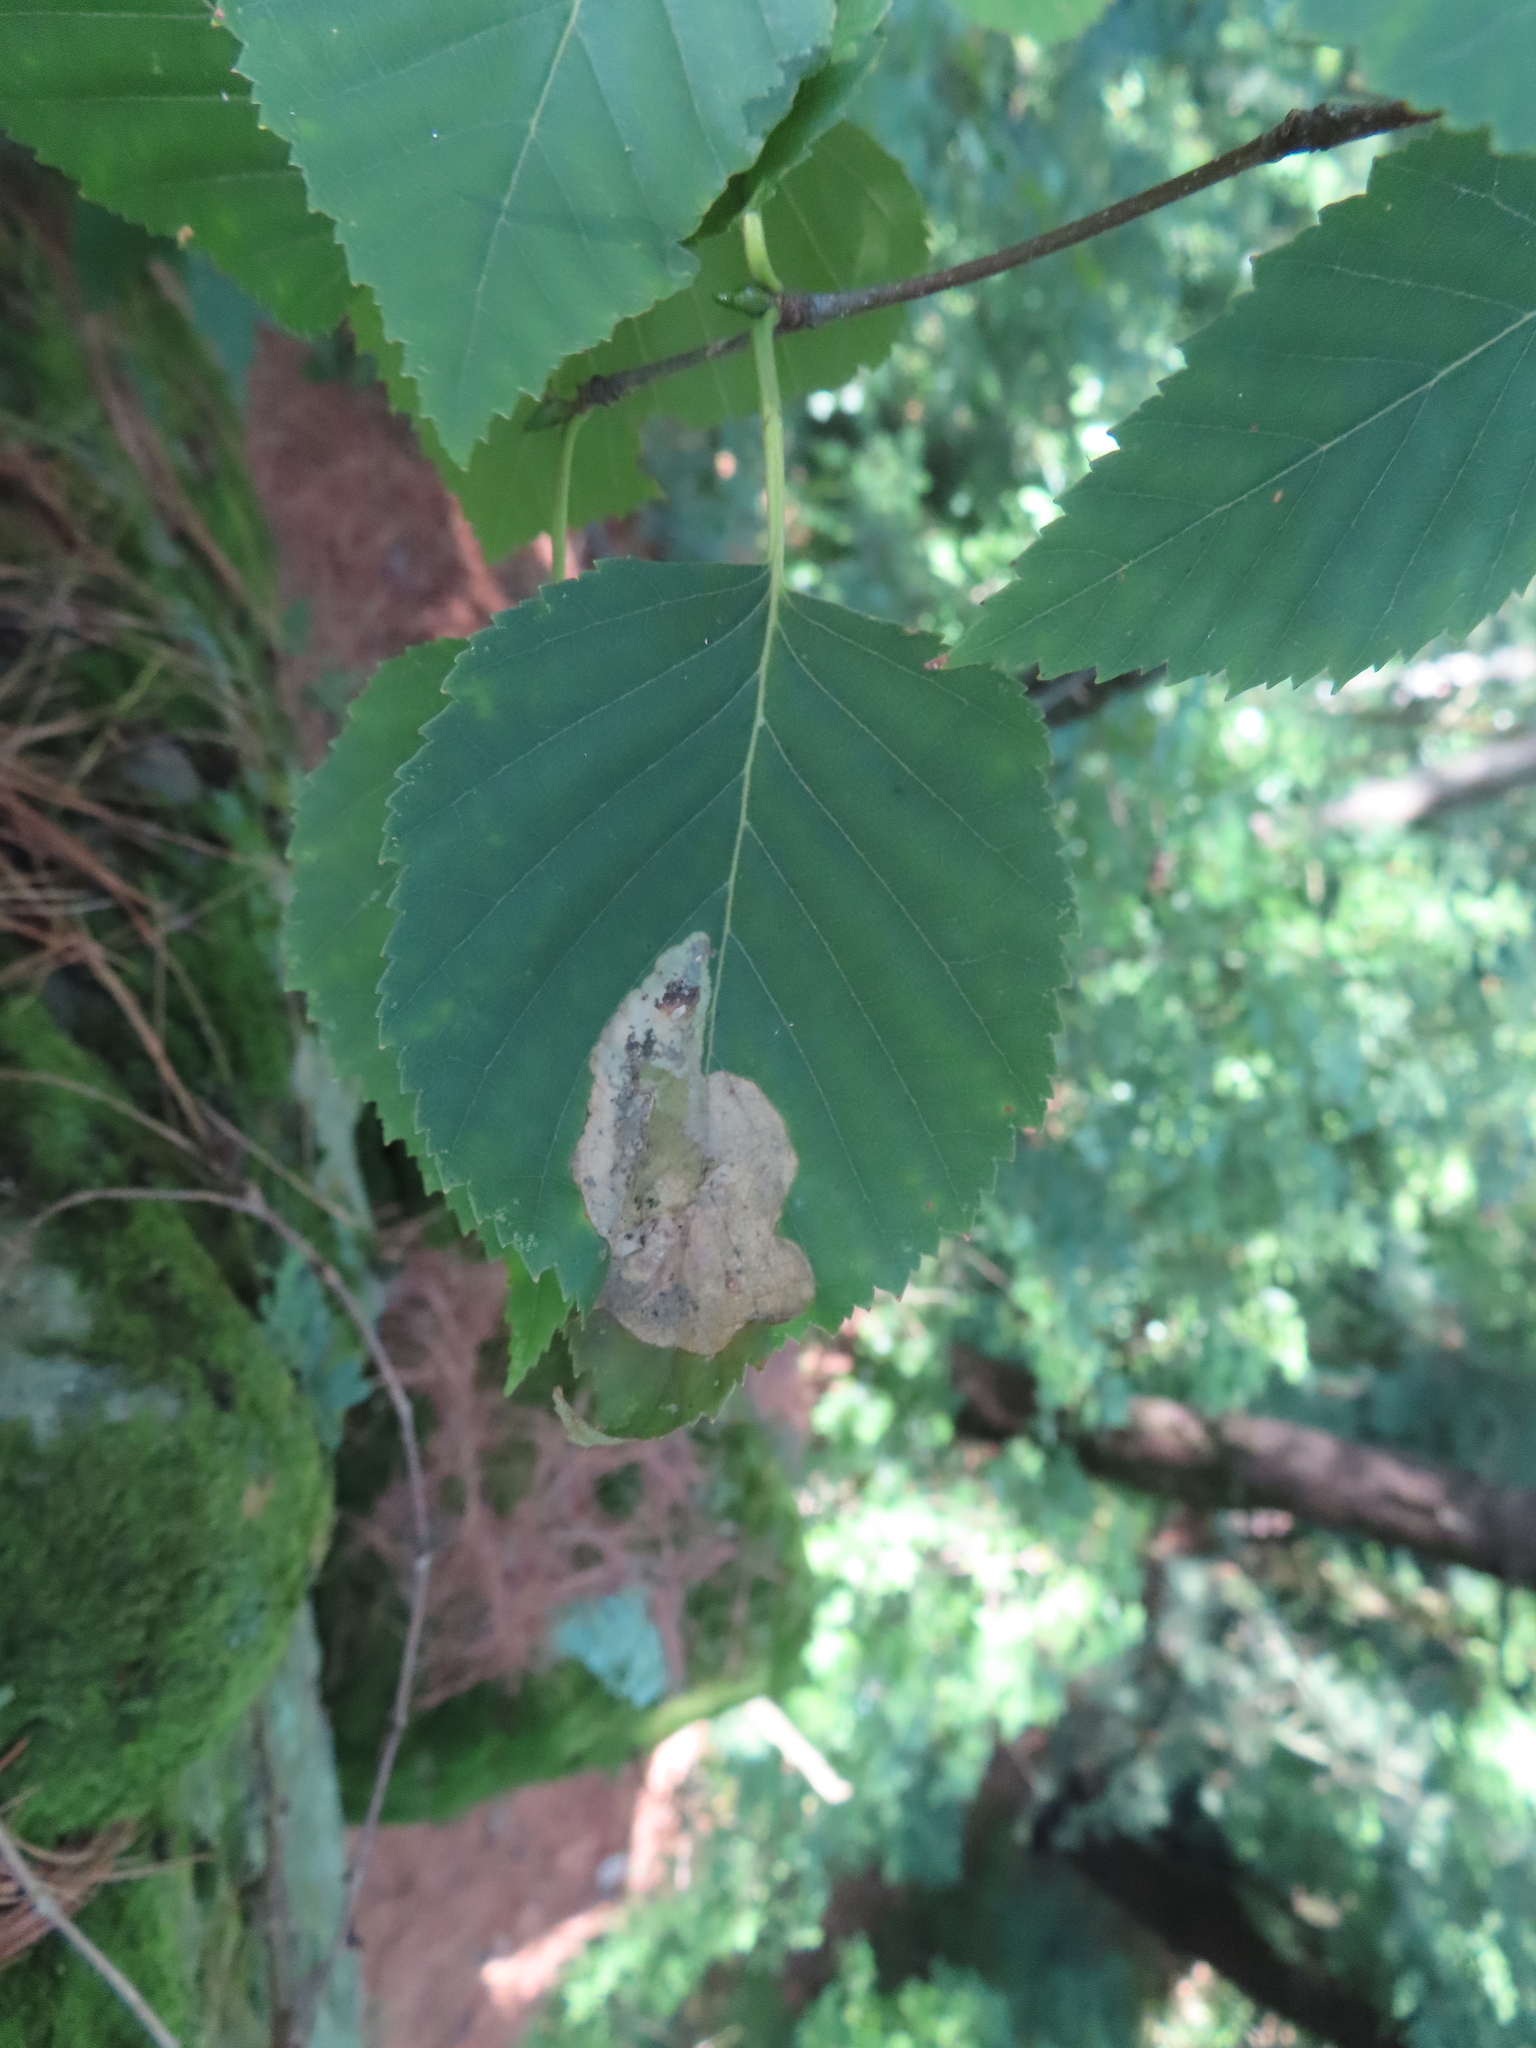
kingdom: Animalia
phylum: Arthropoda
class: Insecta
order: Hymenoptera
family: Tenthredinidae
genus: Profenusa
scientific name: Profenusa thomsoni
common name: Amber-marked birch leafminer
